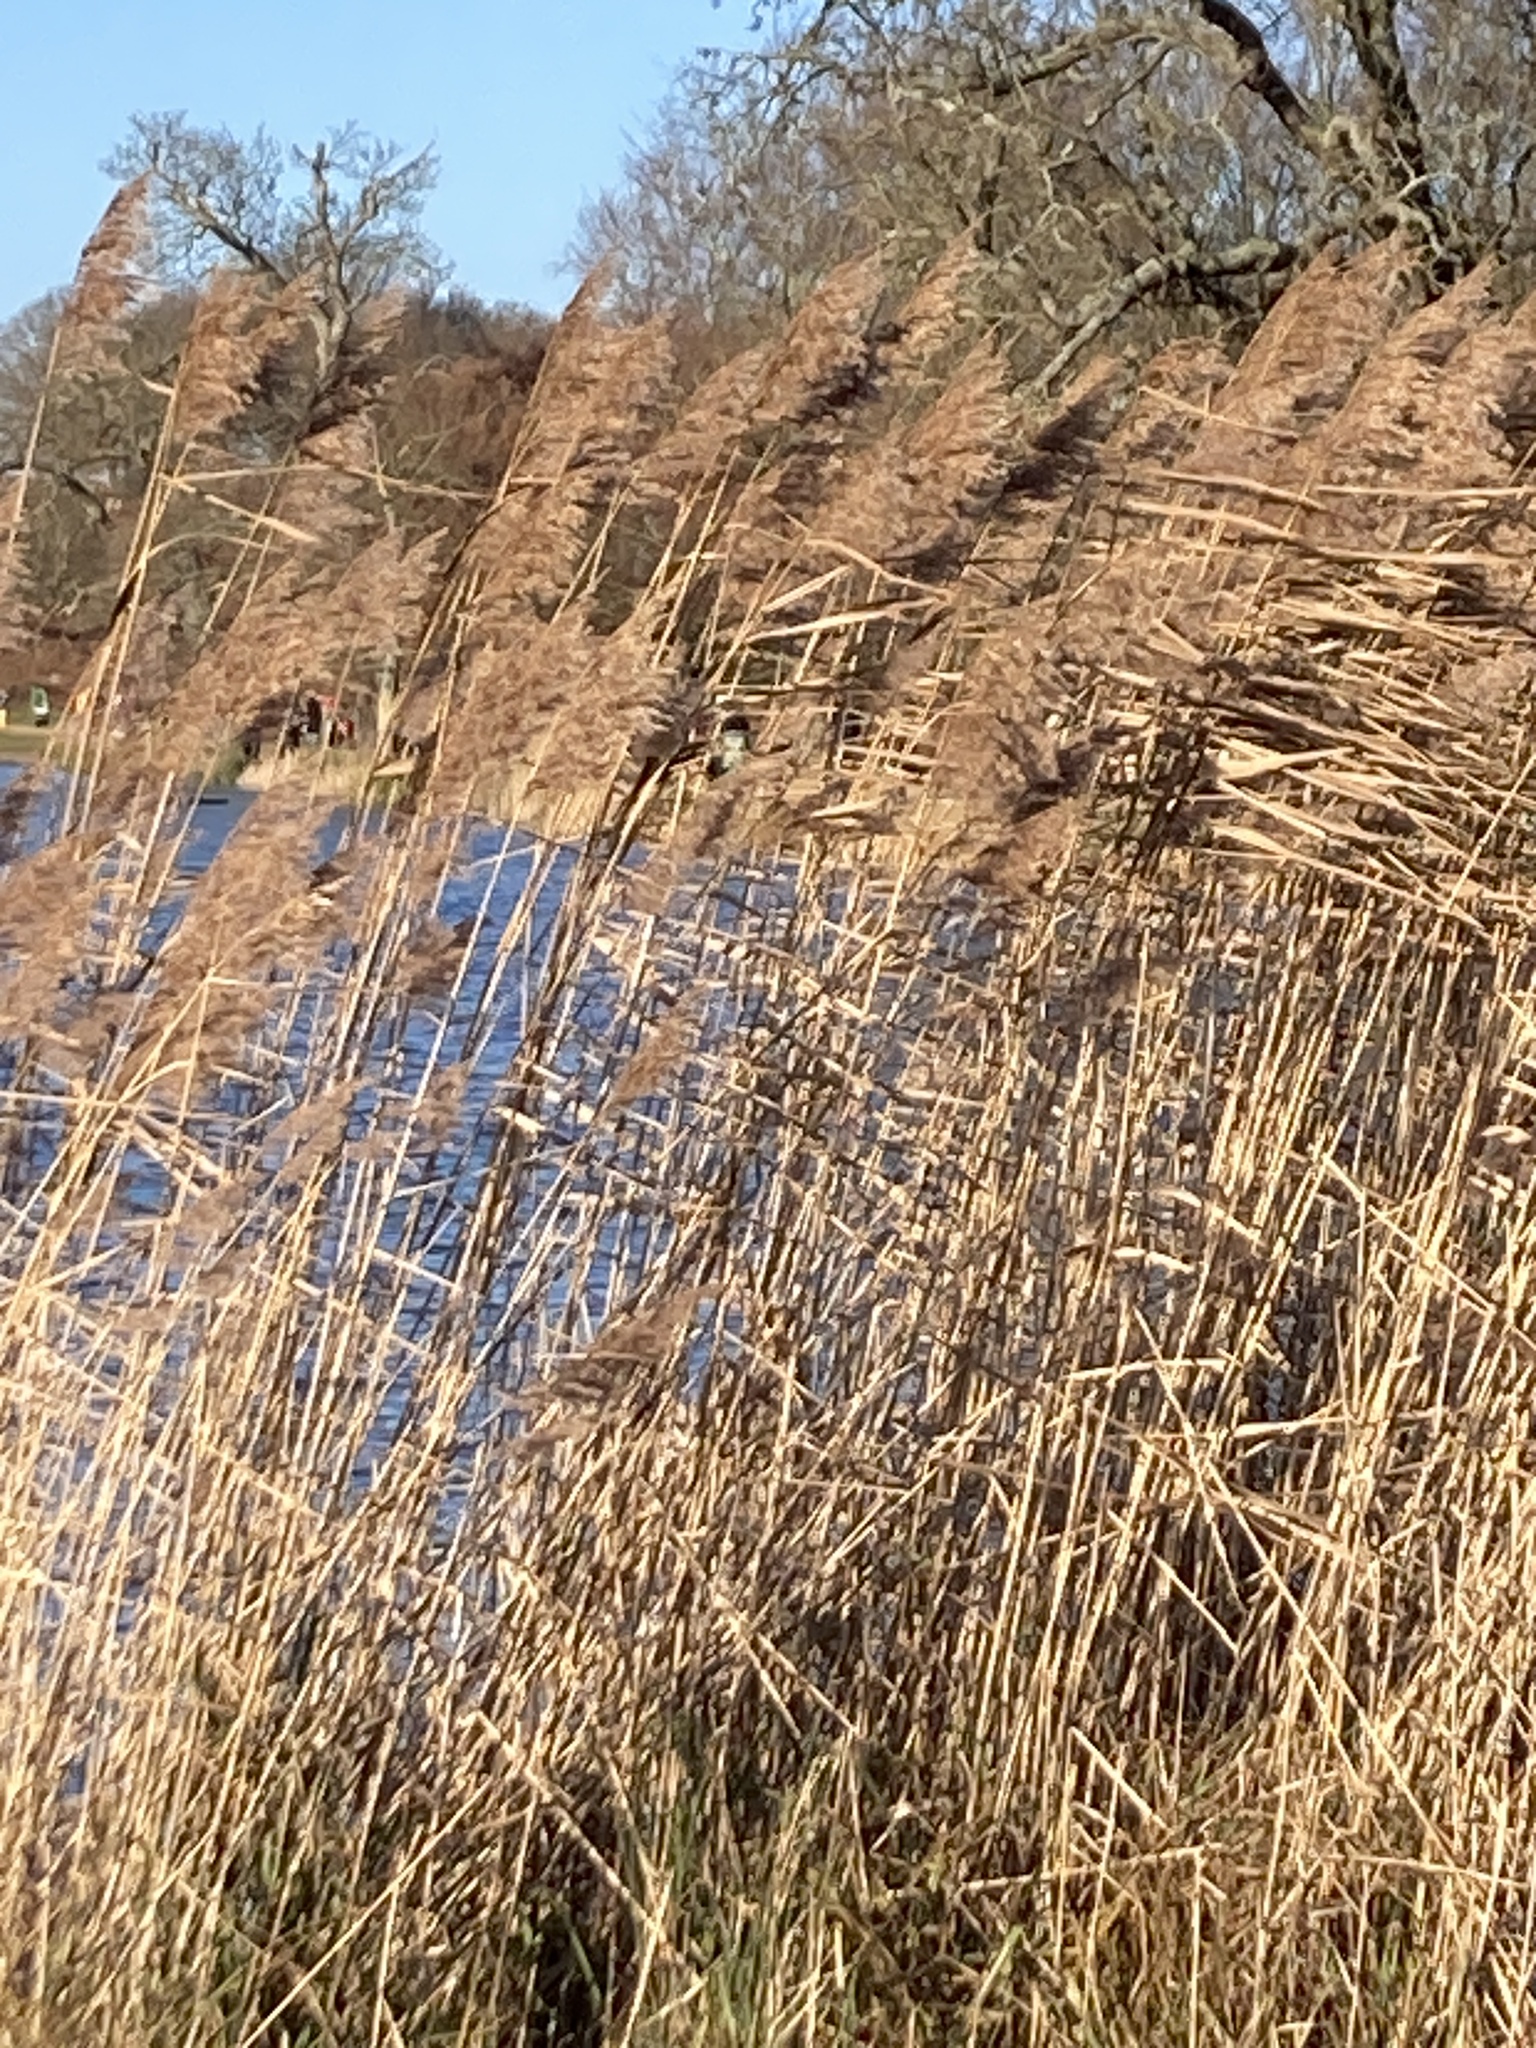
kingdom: Plantae
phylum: Tracheophyta
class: Liliopsida
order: Poales
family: Poaceae
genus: Phragmites
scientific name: Phragmites australis
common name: Common reed
